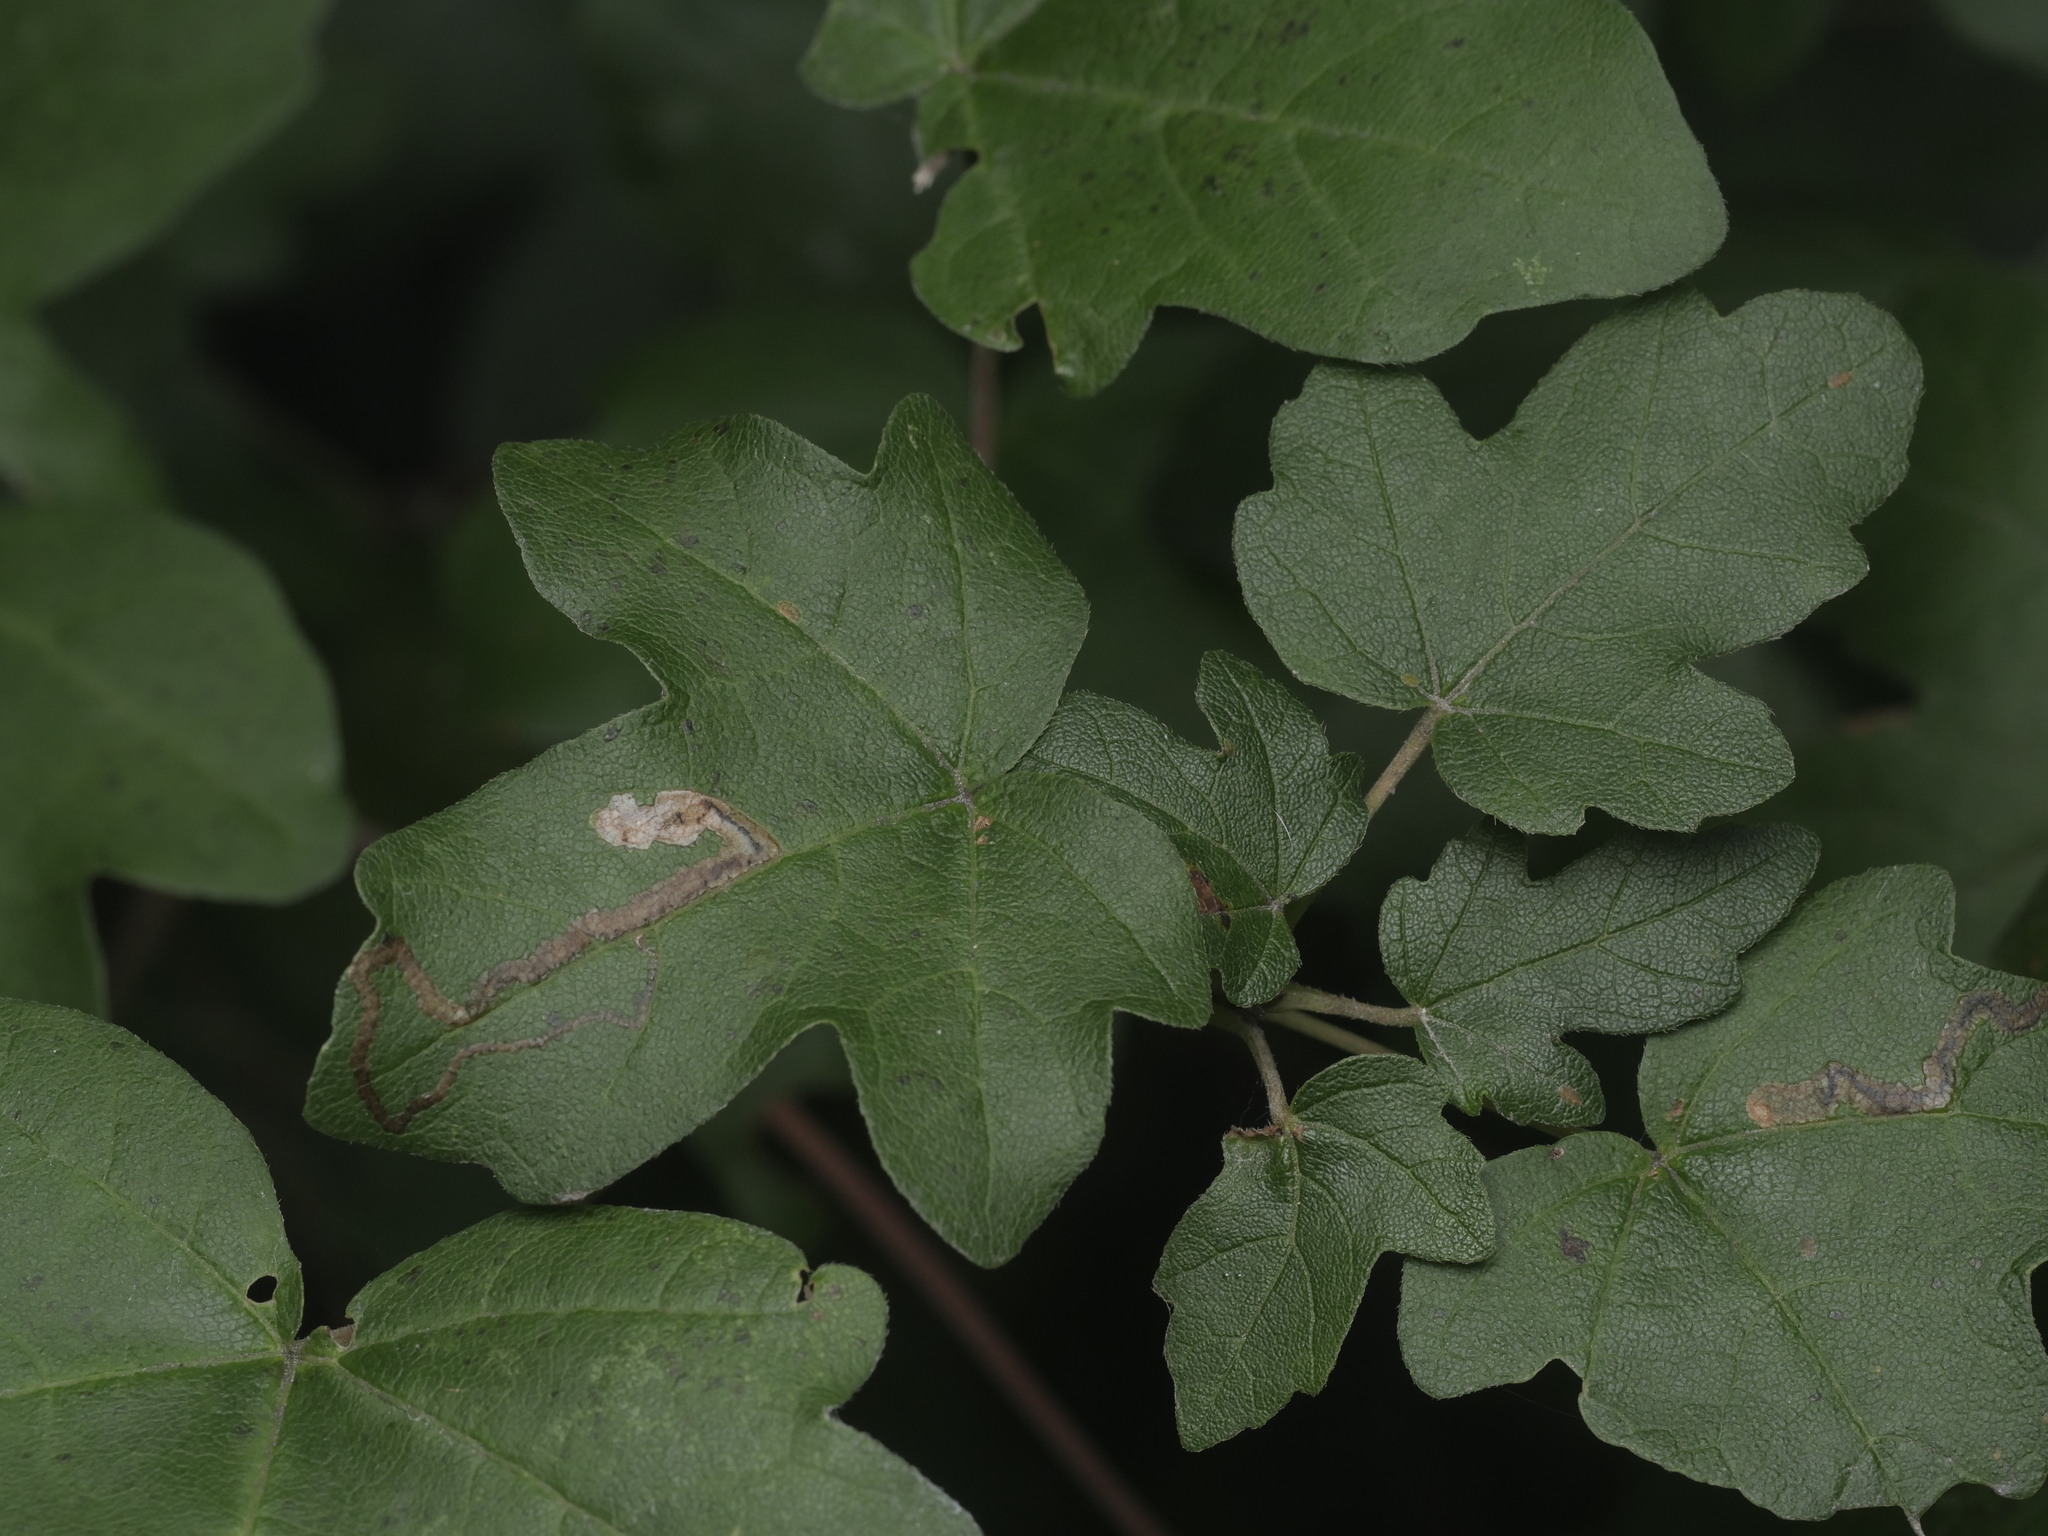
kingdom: Plantae
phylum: Tracheophyta
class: Magnoliopsida
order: Sapindales
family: Sapindaceae
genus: Acer
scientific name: Acer campestre
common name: Field maple
